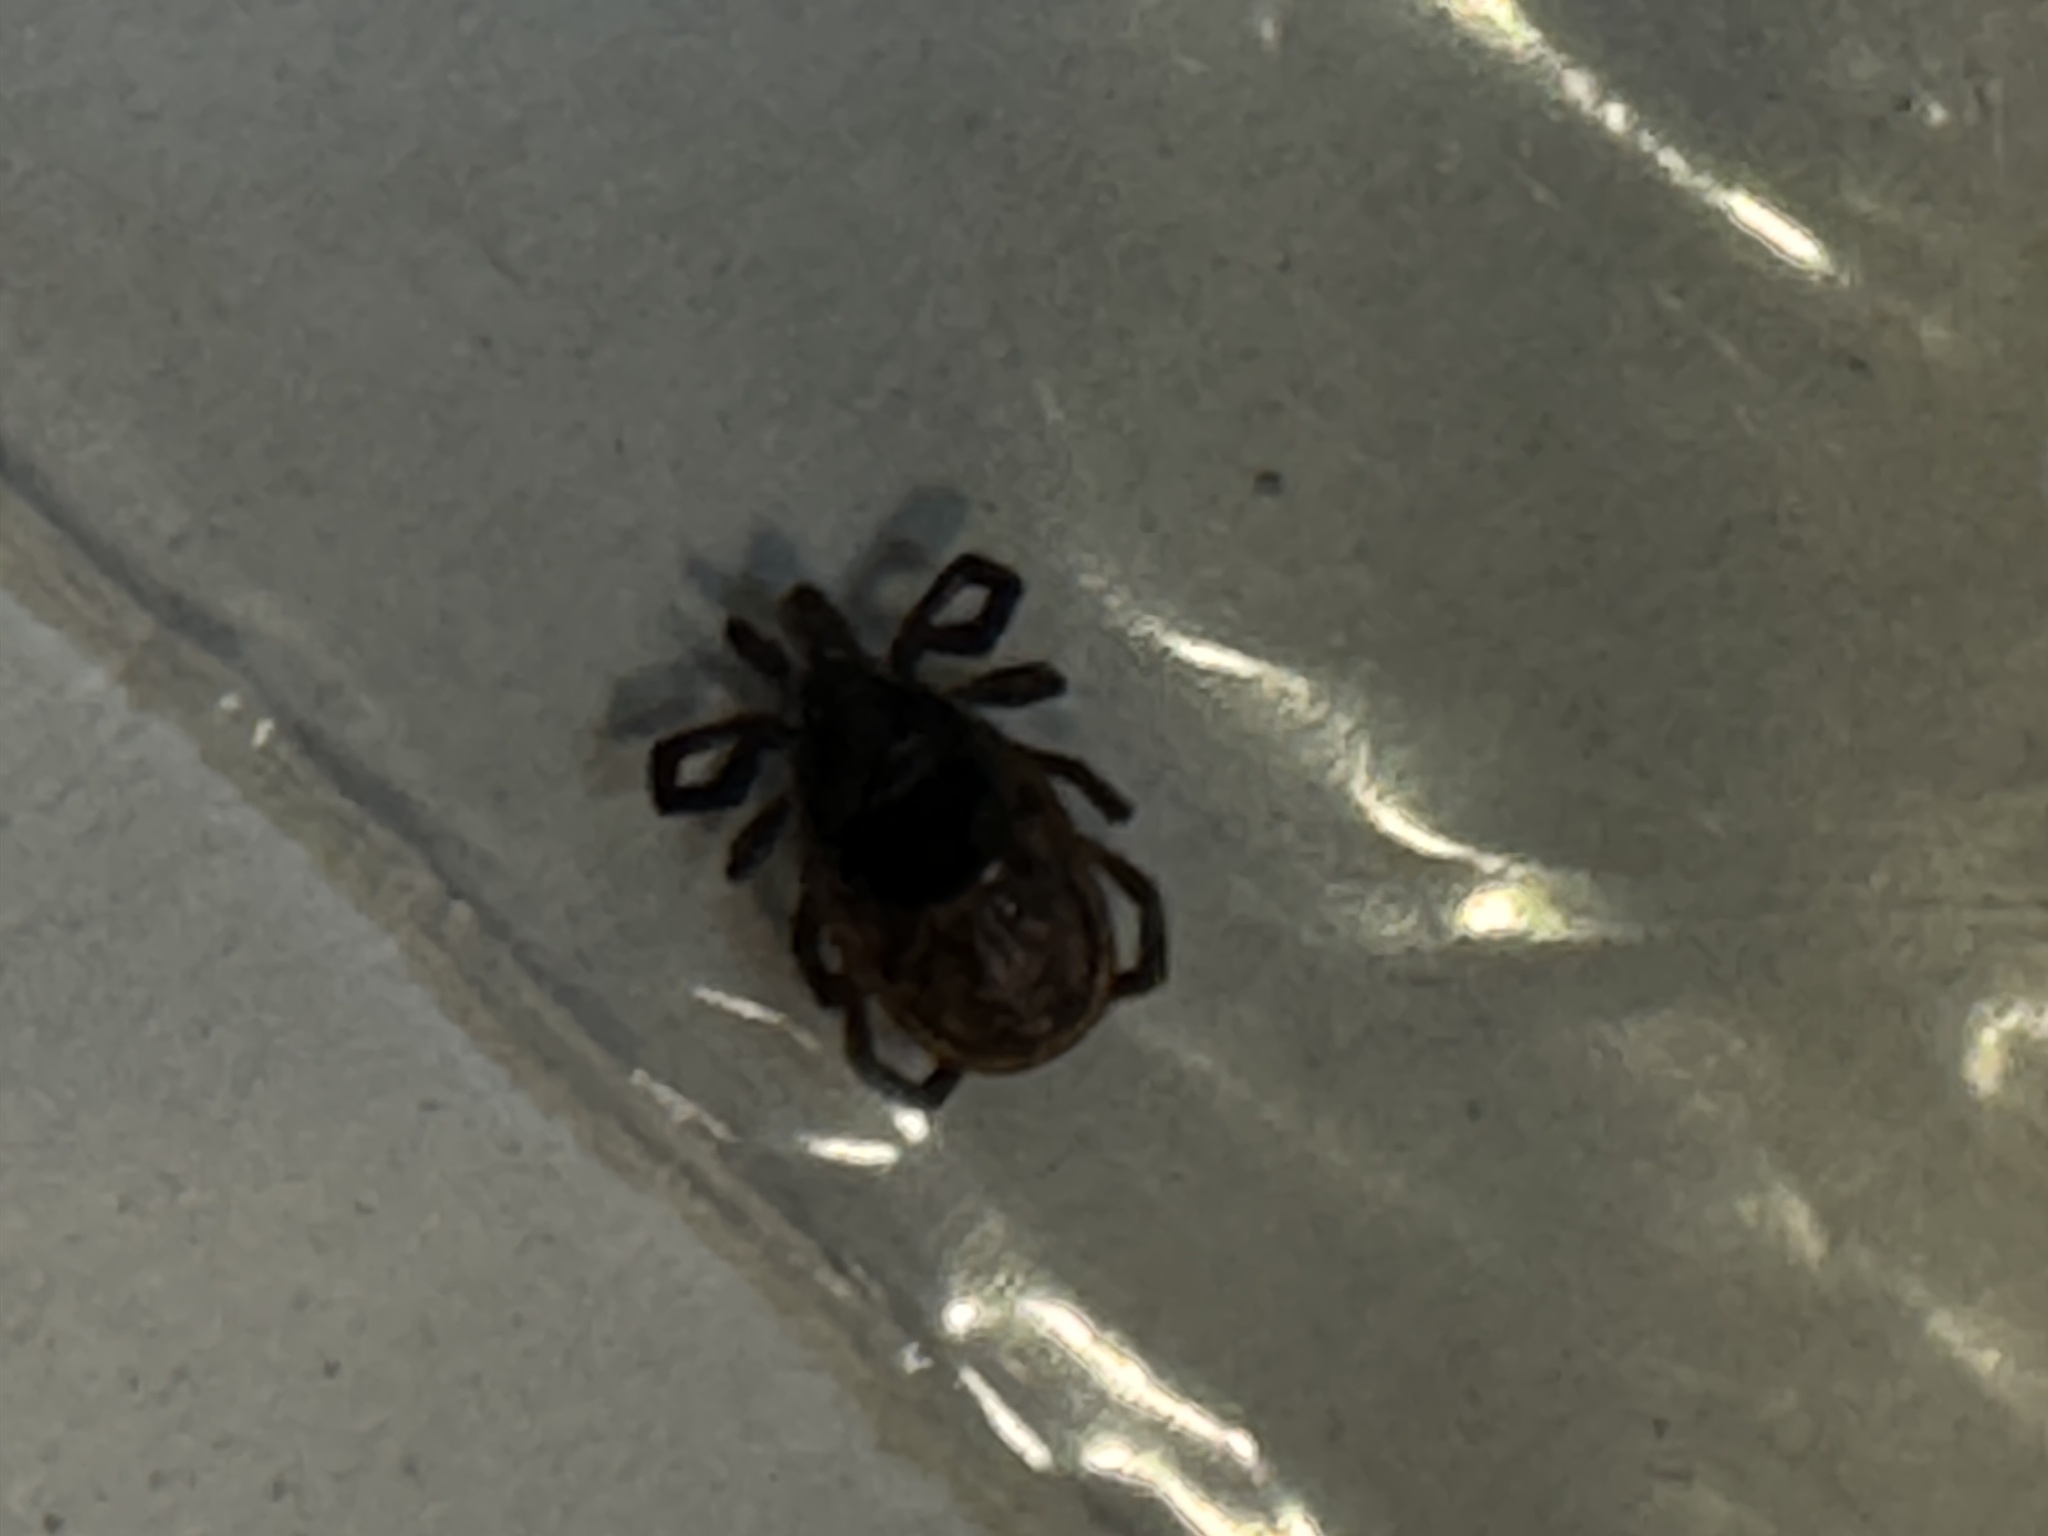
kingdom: Animalia
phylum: Arthropoda
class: Arachnida
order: Ixodida
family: Ixodidae
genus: Ixodes
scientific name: Ixodes scapularis
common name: Black legged tick
